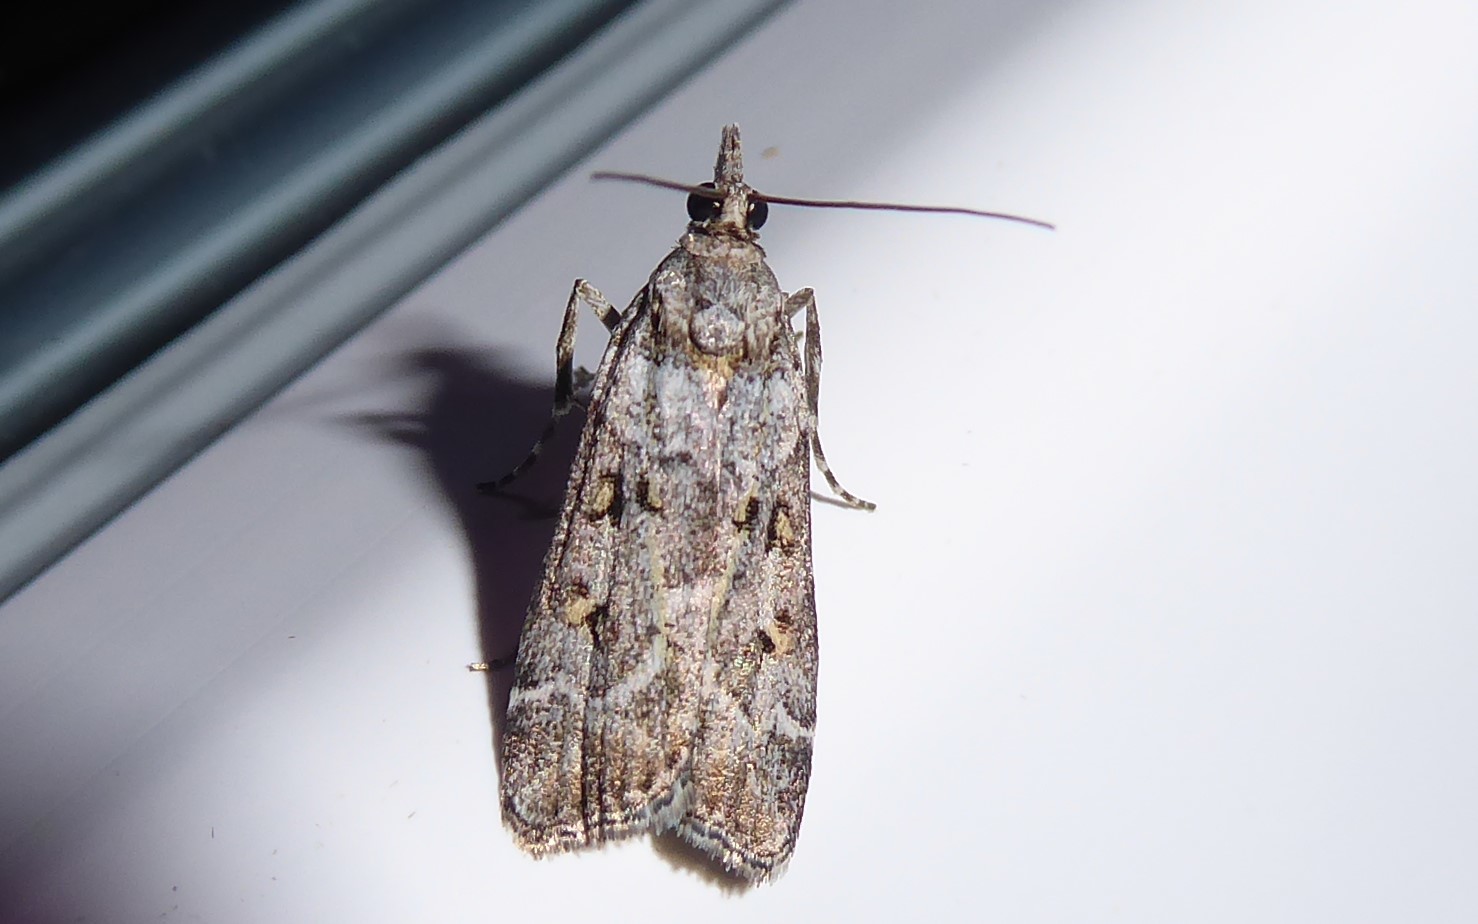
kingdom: Animalia
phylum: Arthropoda
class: Insecta
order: Lepidoptera
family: Crambidae
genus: Eudonia
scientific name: Eudonia diphtheralis
